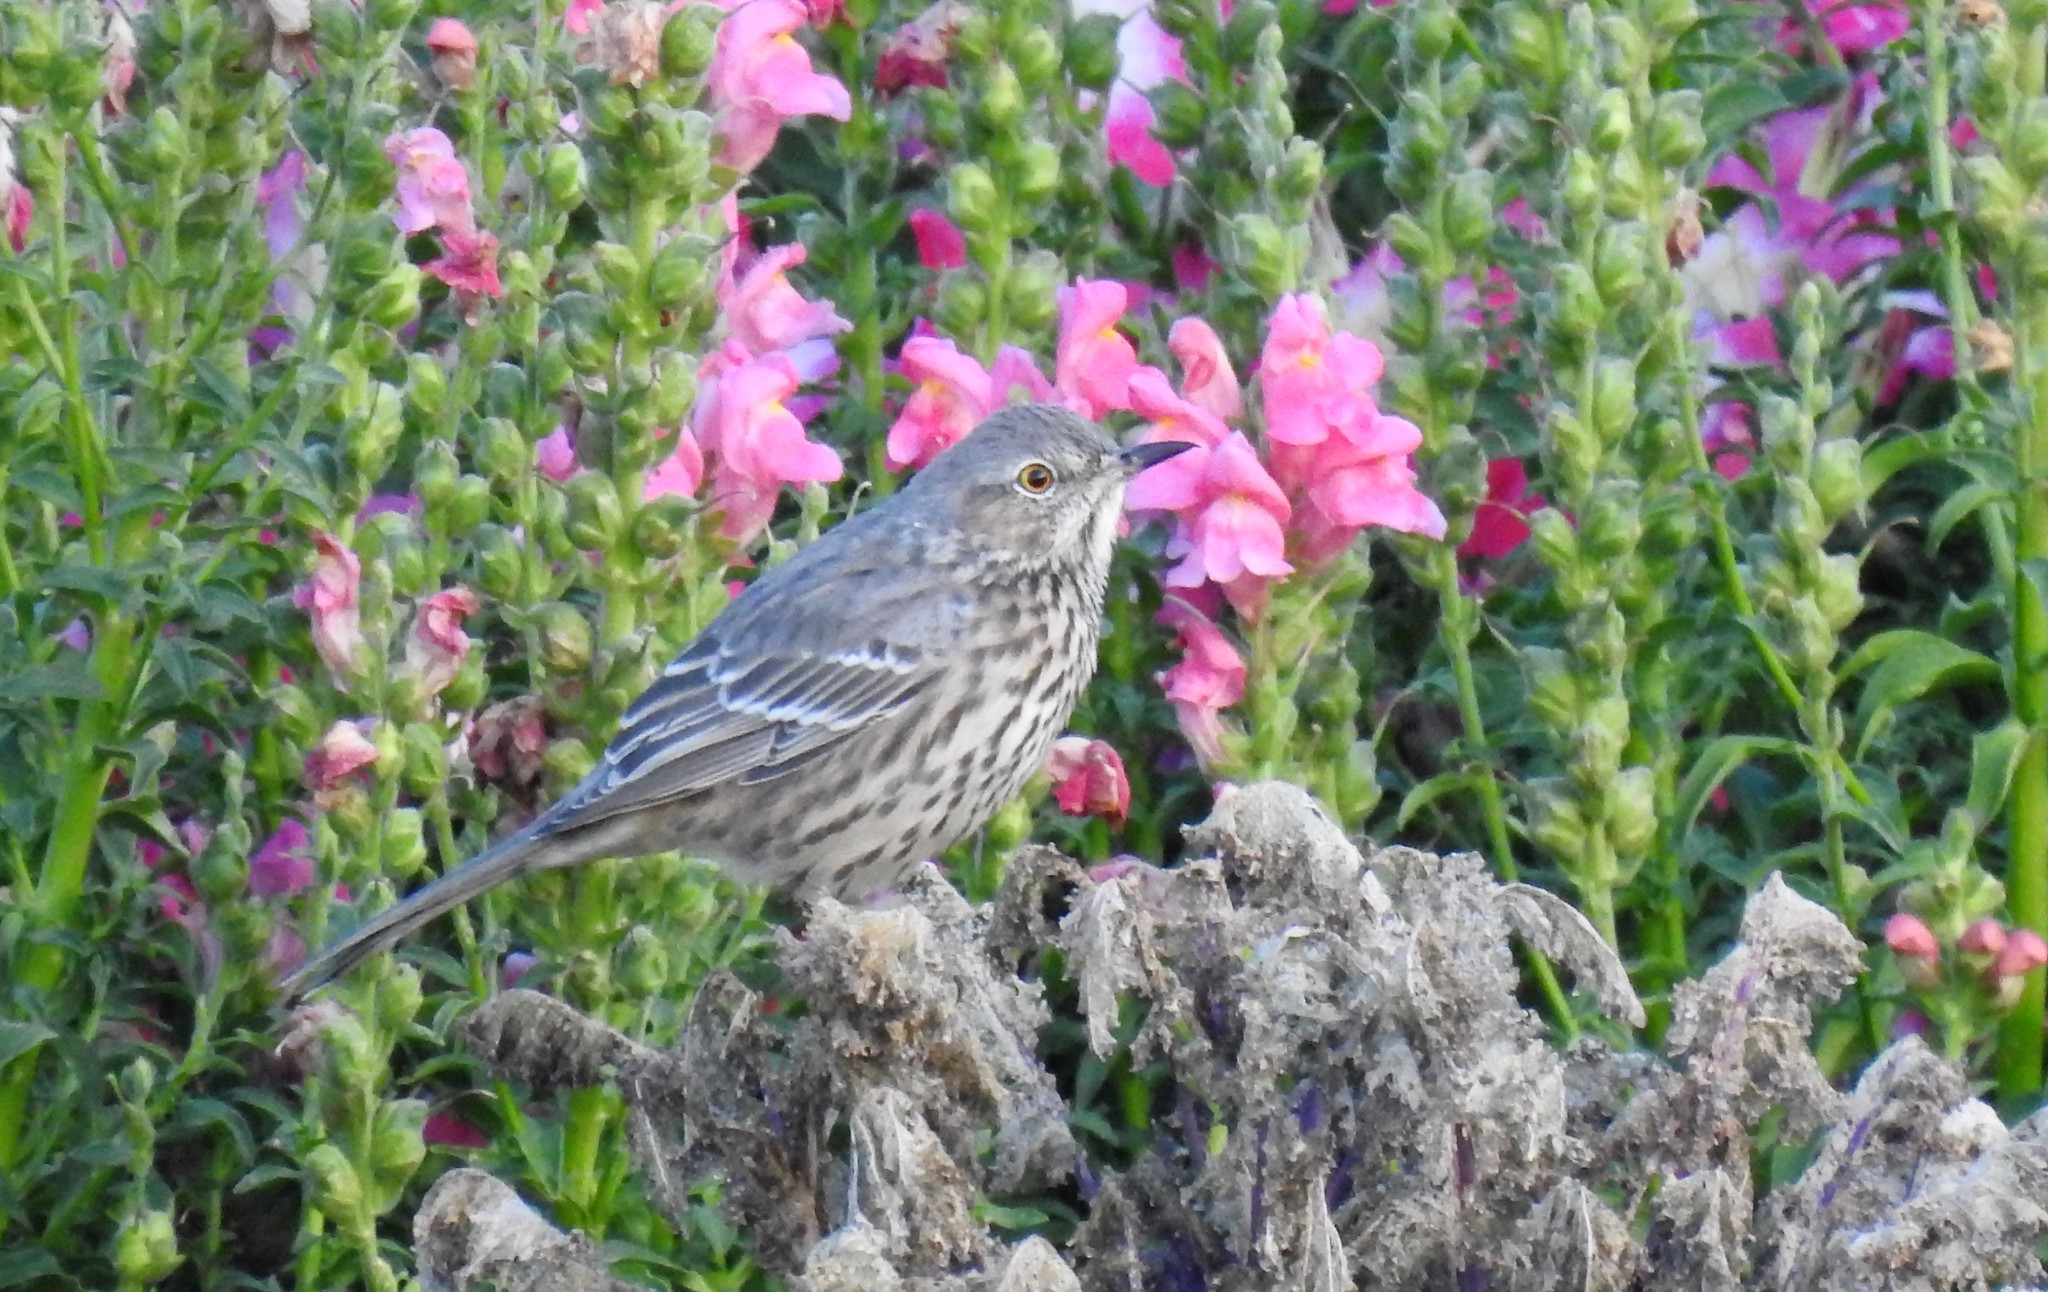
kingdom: Animalia
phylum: Chordata
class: Aves
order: Passeriformes
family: Mimidae
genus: Oreoscoptes
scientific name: Oreoscoptes montanus
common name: Sage thrasher
